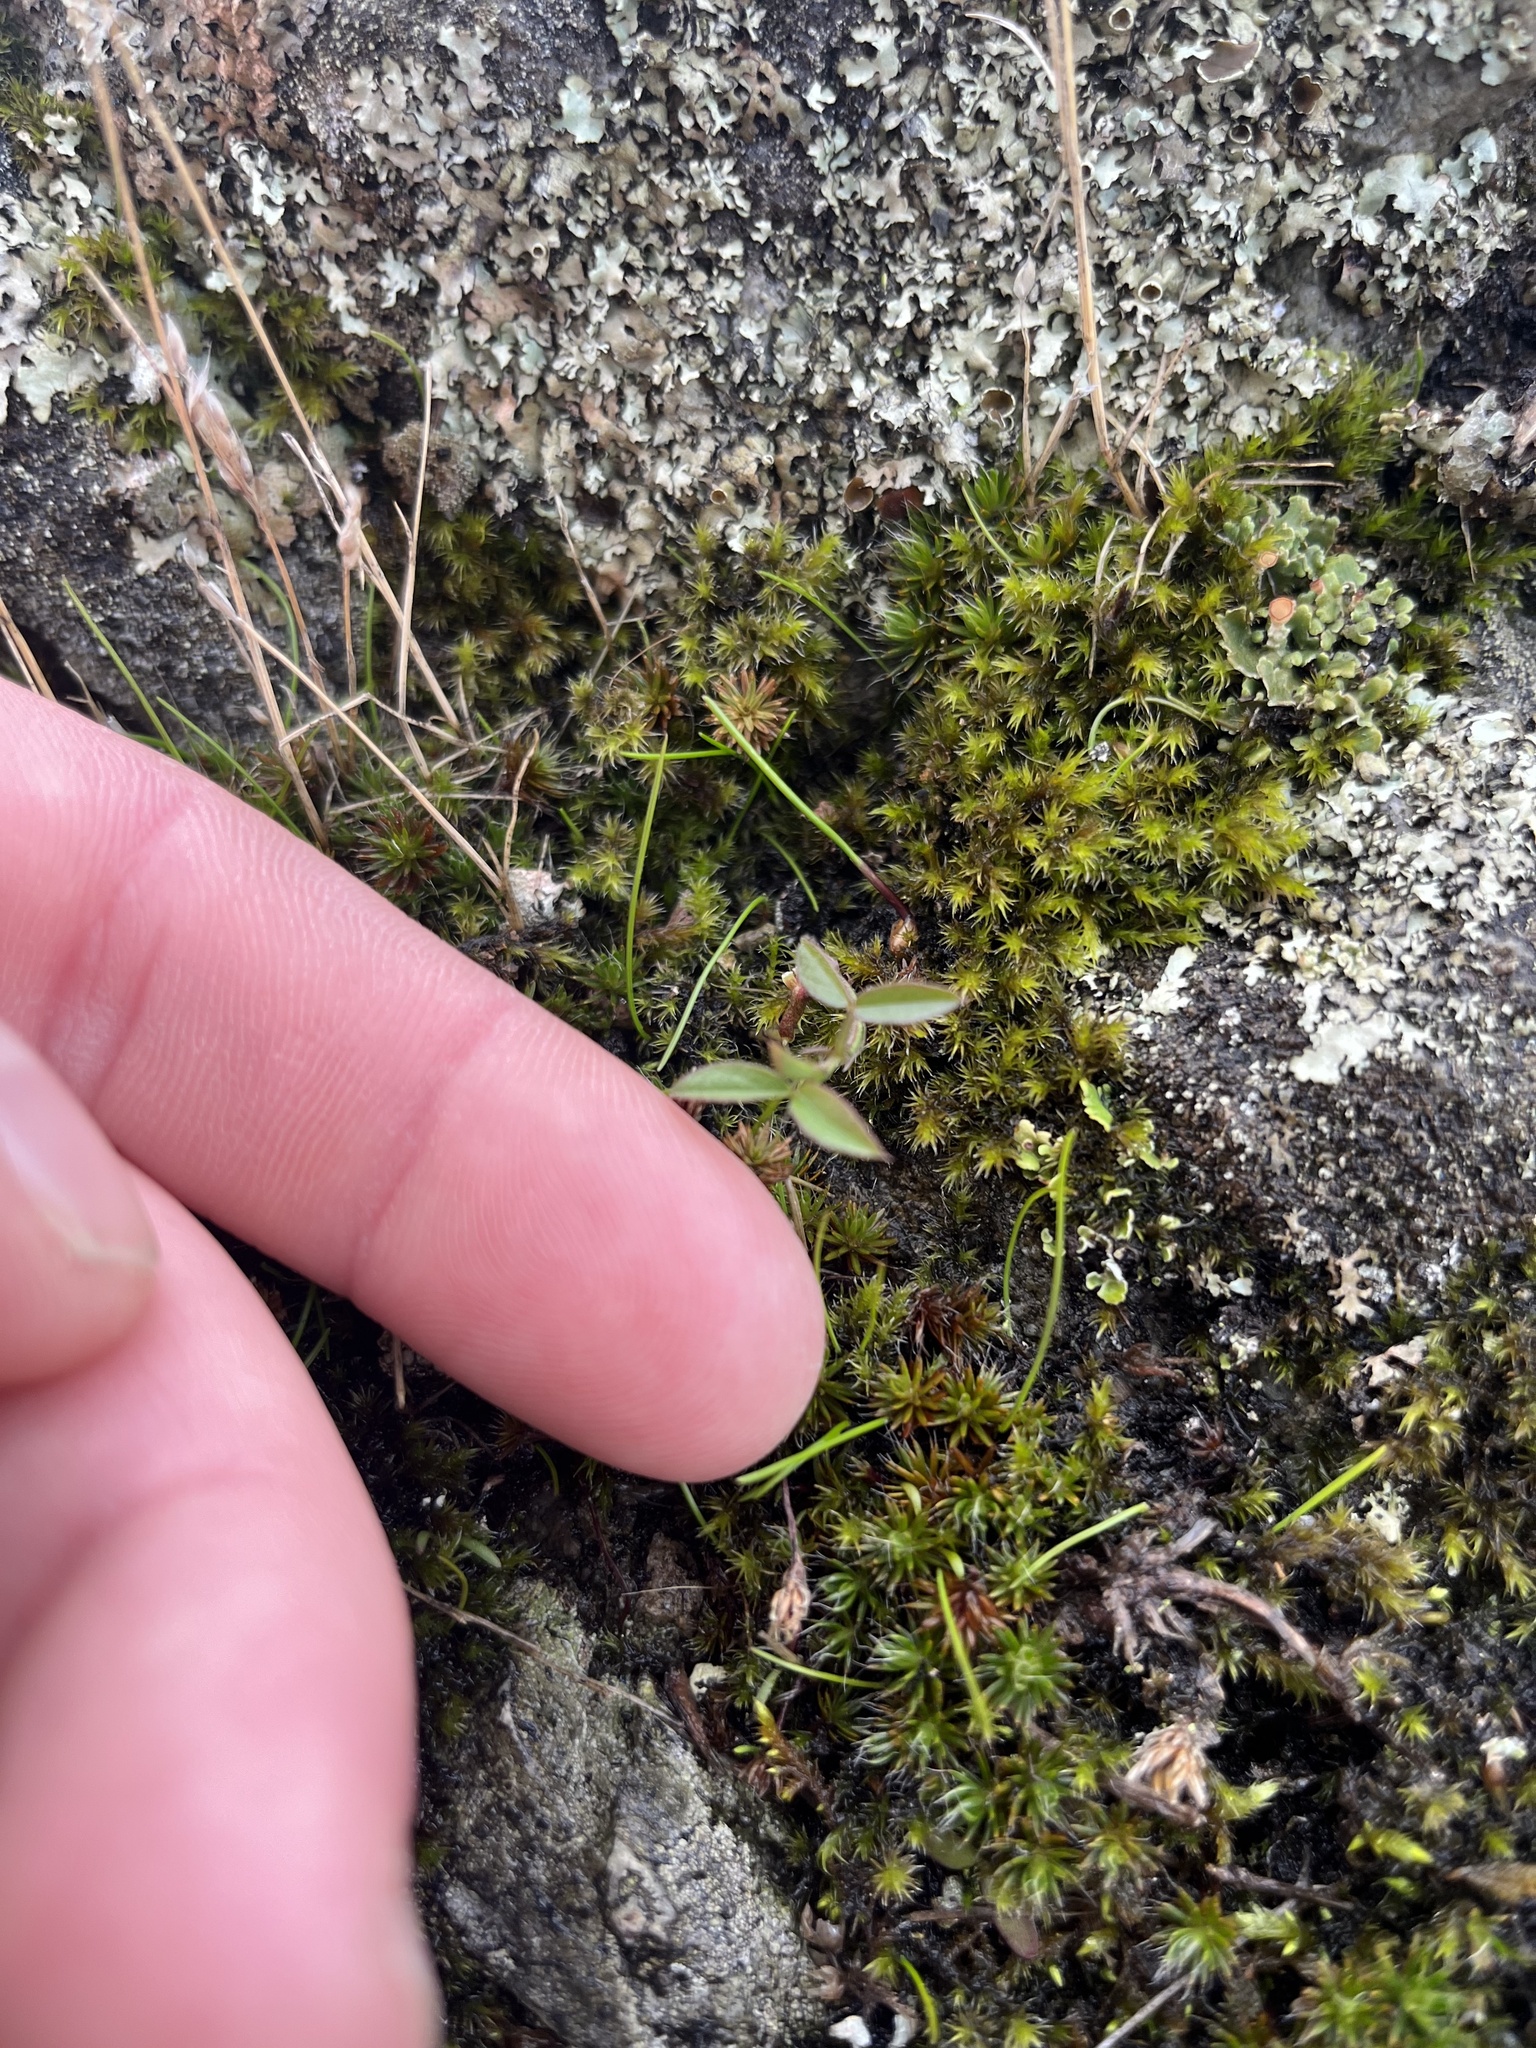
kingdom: Plantae
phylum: Tracheophyta
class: Magnoliopsida
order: Myrtales
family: Onagraceae
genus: Epilobium
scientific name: Epilobium minutum
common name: Chaparral willowherb
